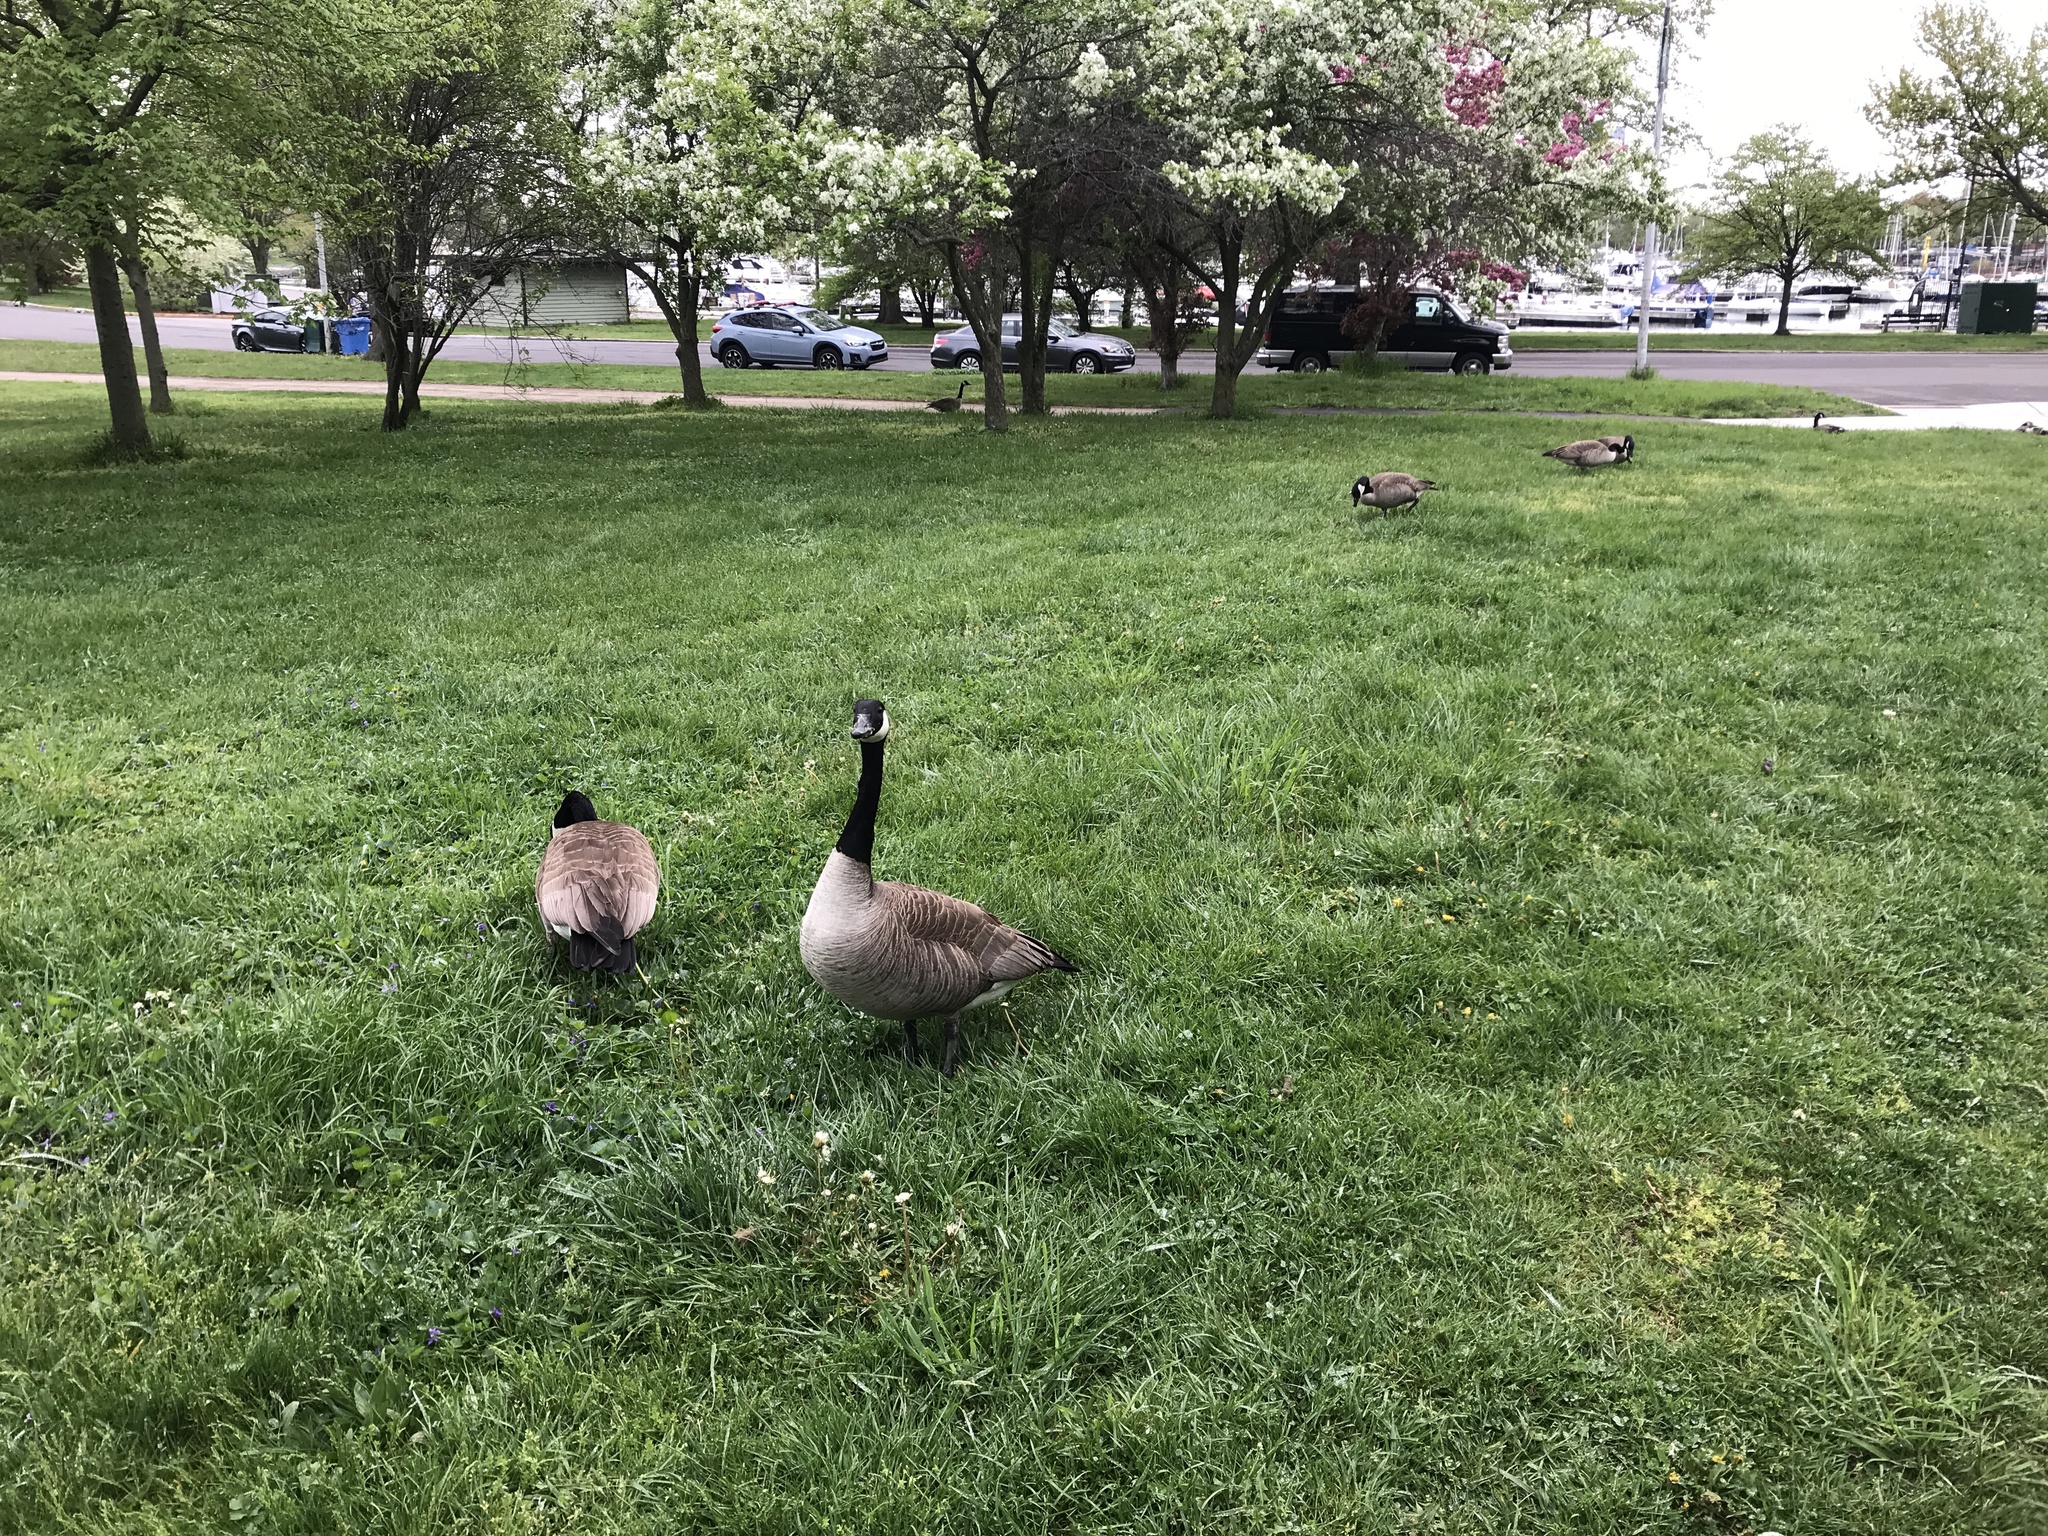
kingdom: Animalia
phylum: Chordata
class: Aves
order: Anseriformes
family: Anatidae
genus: Branta
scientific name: Branta canadensis
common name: Canada goose
